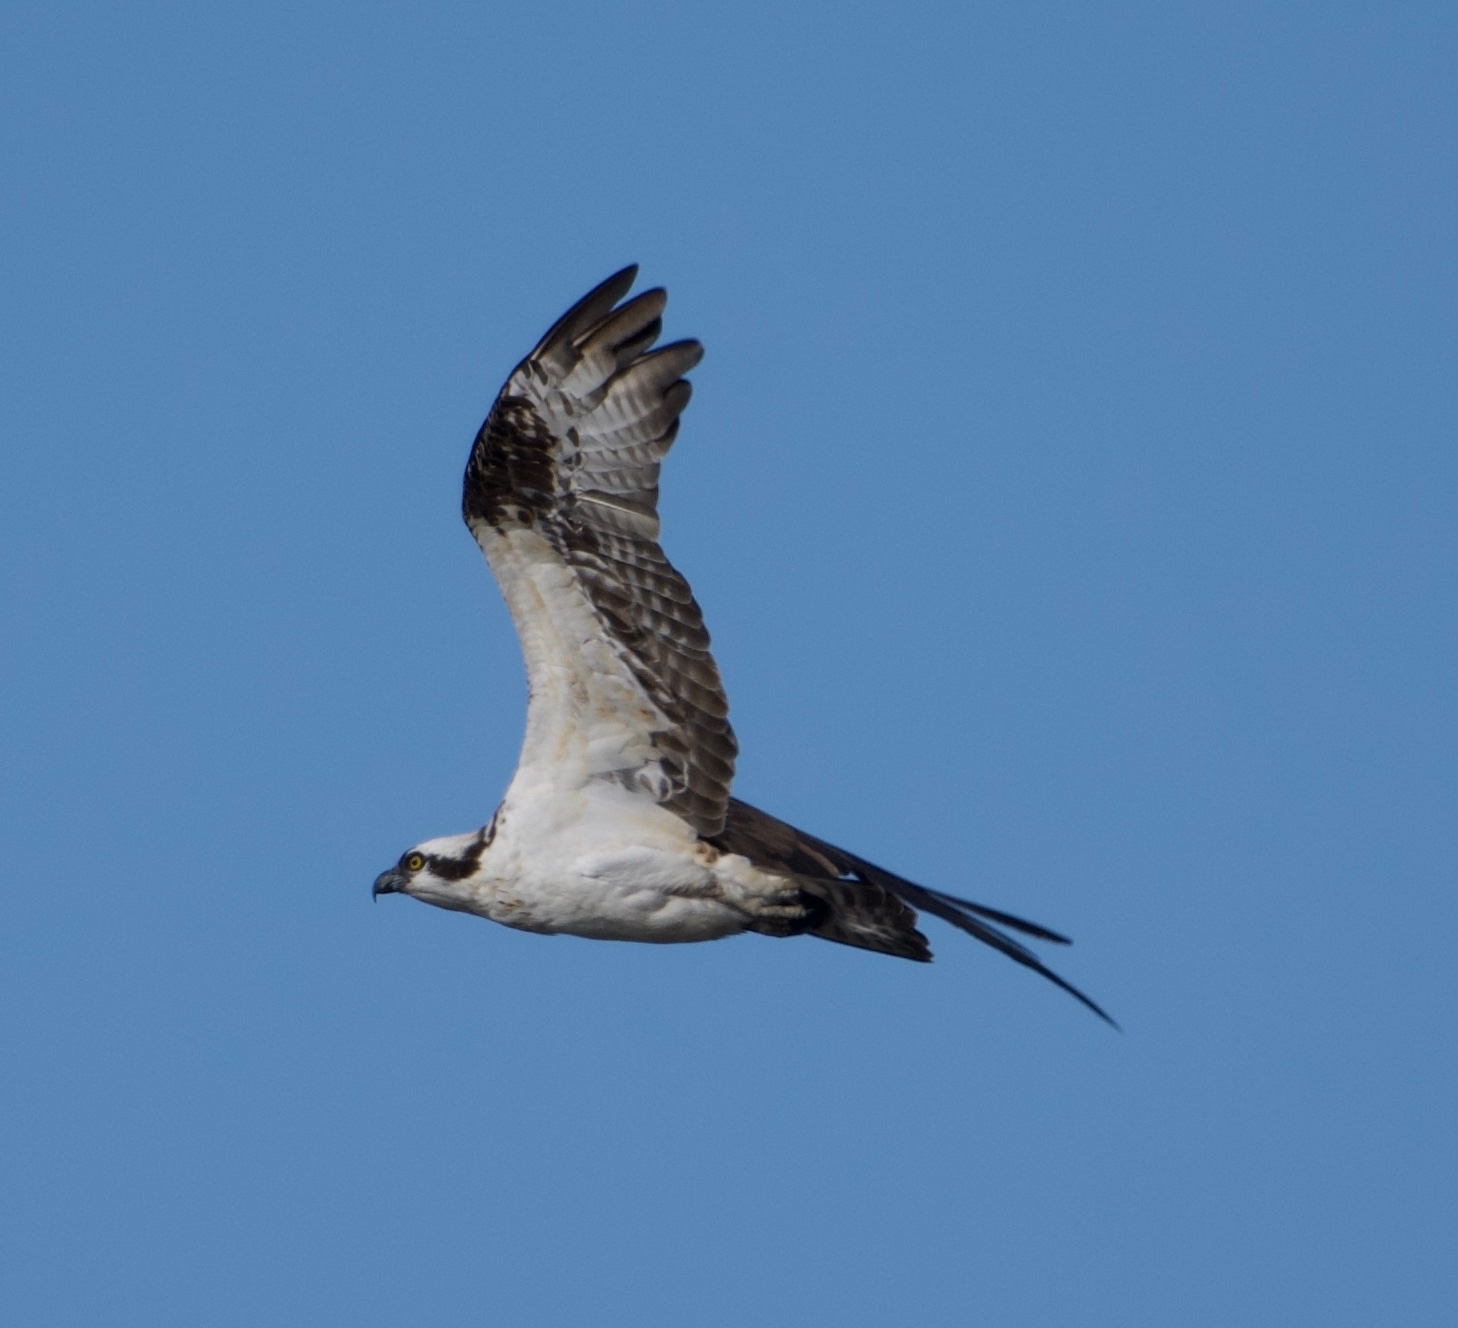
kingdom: Animalia
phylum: Chordata
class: Aves
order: Accipitriformes
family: Pandionidae
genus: Pandion
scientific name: Pandion haliaetus
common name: Osprey
